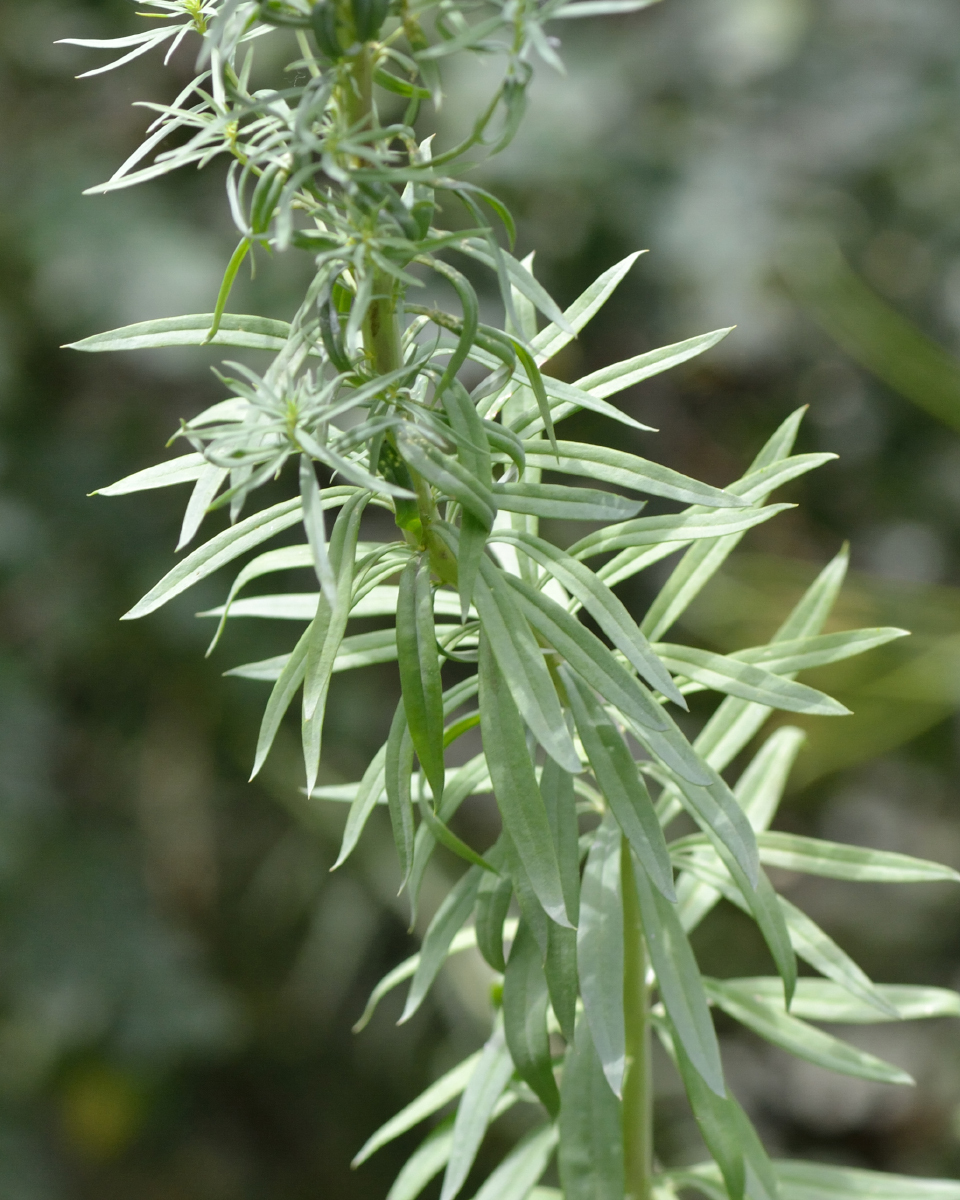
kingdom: Plantae
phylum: Tracheophyta
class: Magnoliopsida
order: Lamiales
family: Plantaginaceae
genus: Linaria
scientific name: Linaria vulgaris
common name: Butter and eggs
